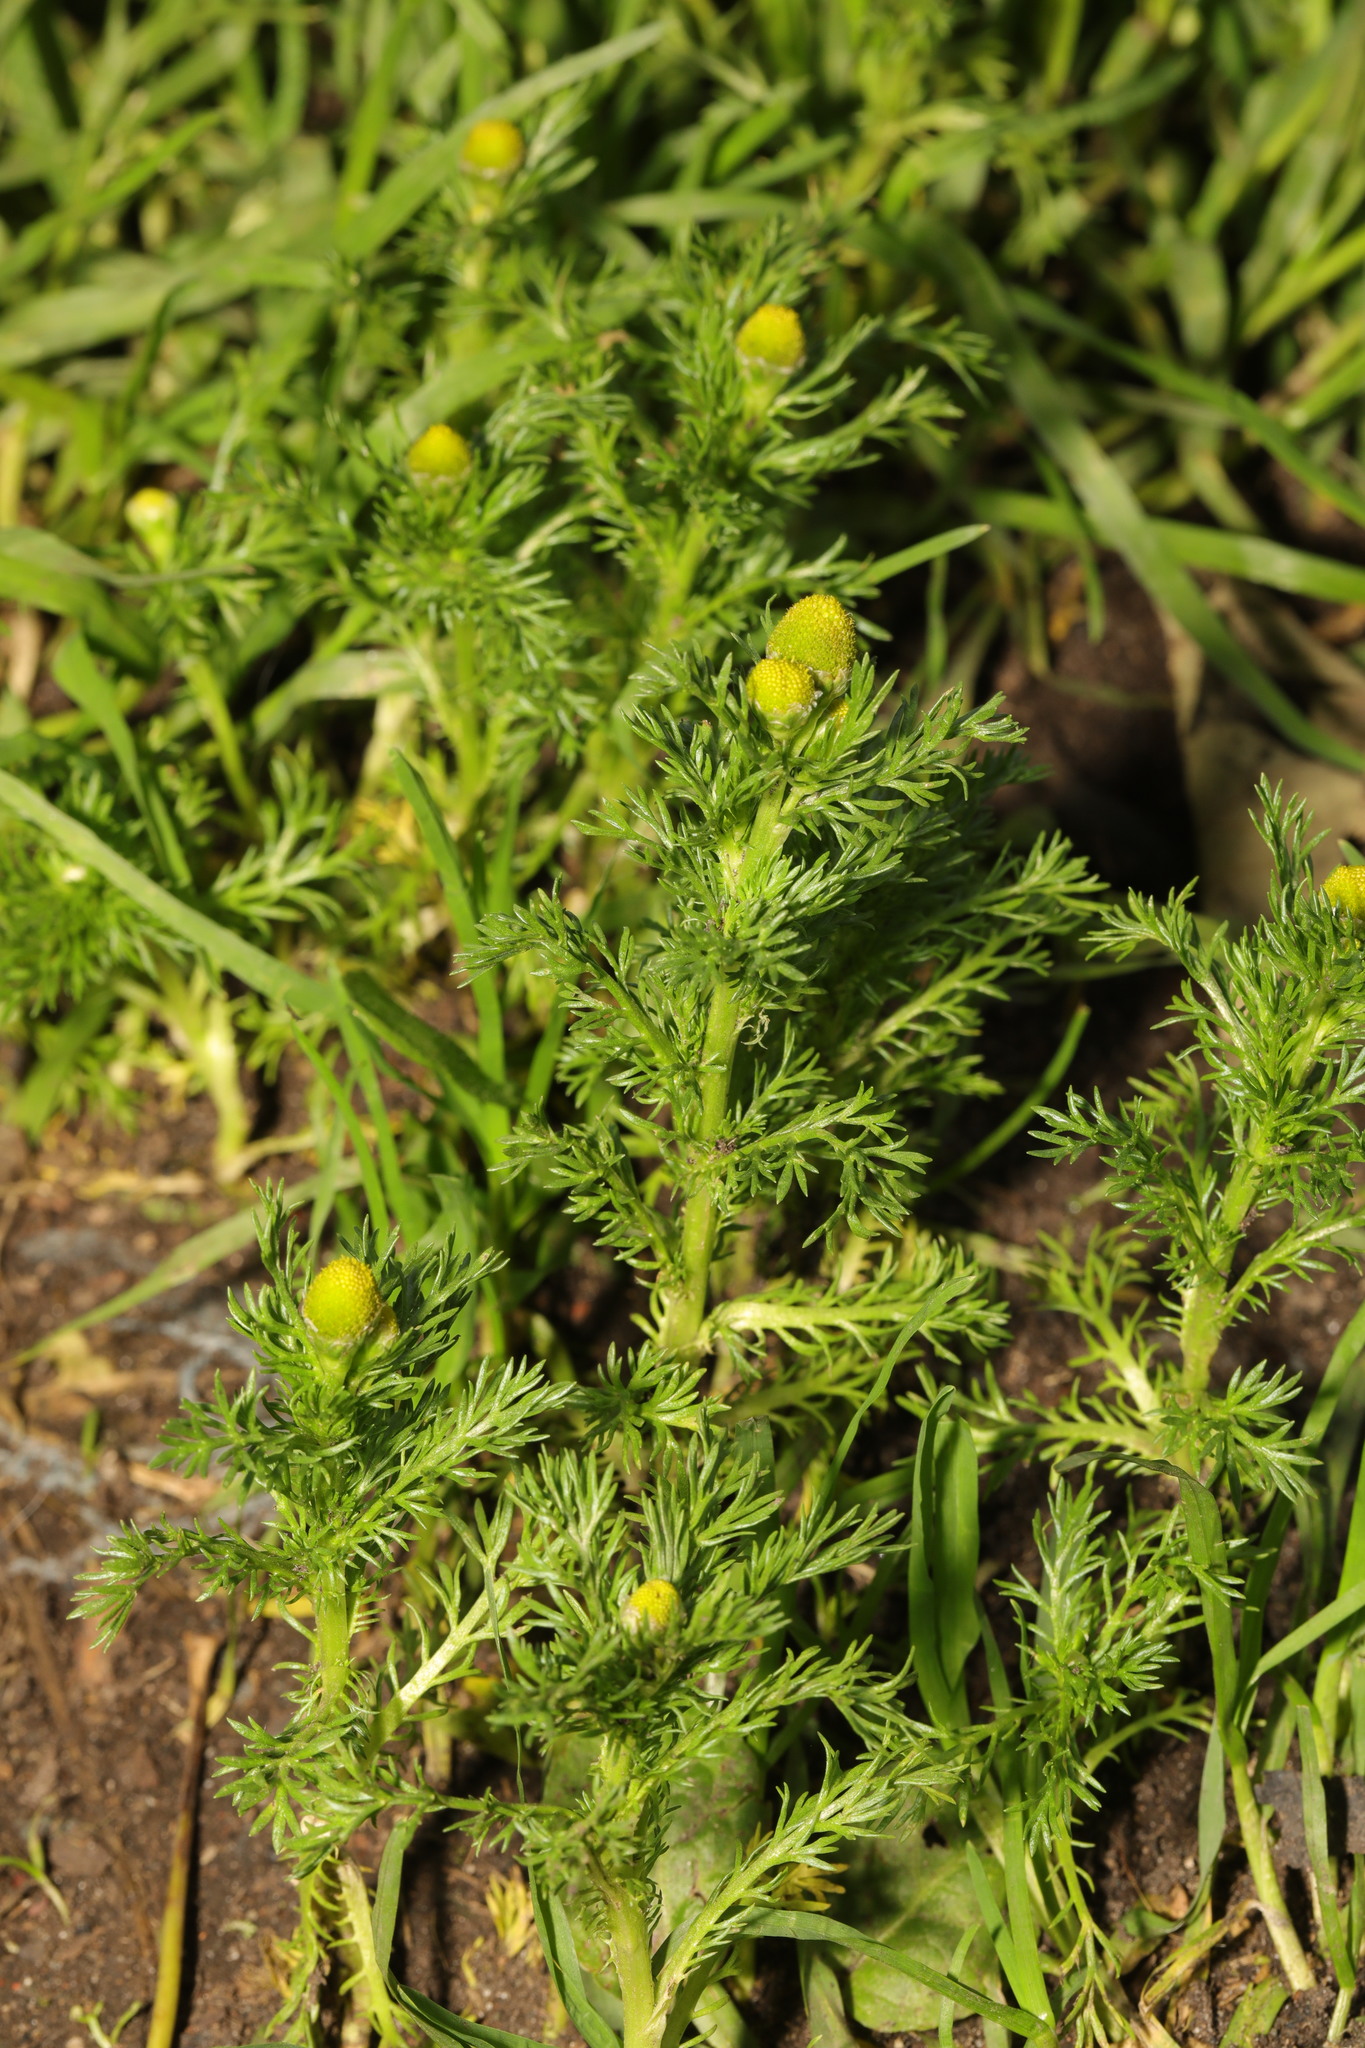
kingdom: Plantae
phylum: Tracheophyta
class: Magnoliopsida
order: Asterales
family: Asteraceae
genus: Matricaria
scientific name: Matricaria discoidea
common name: Disc mayweed
